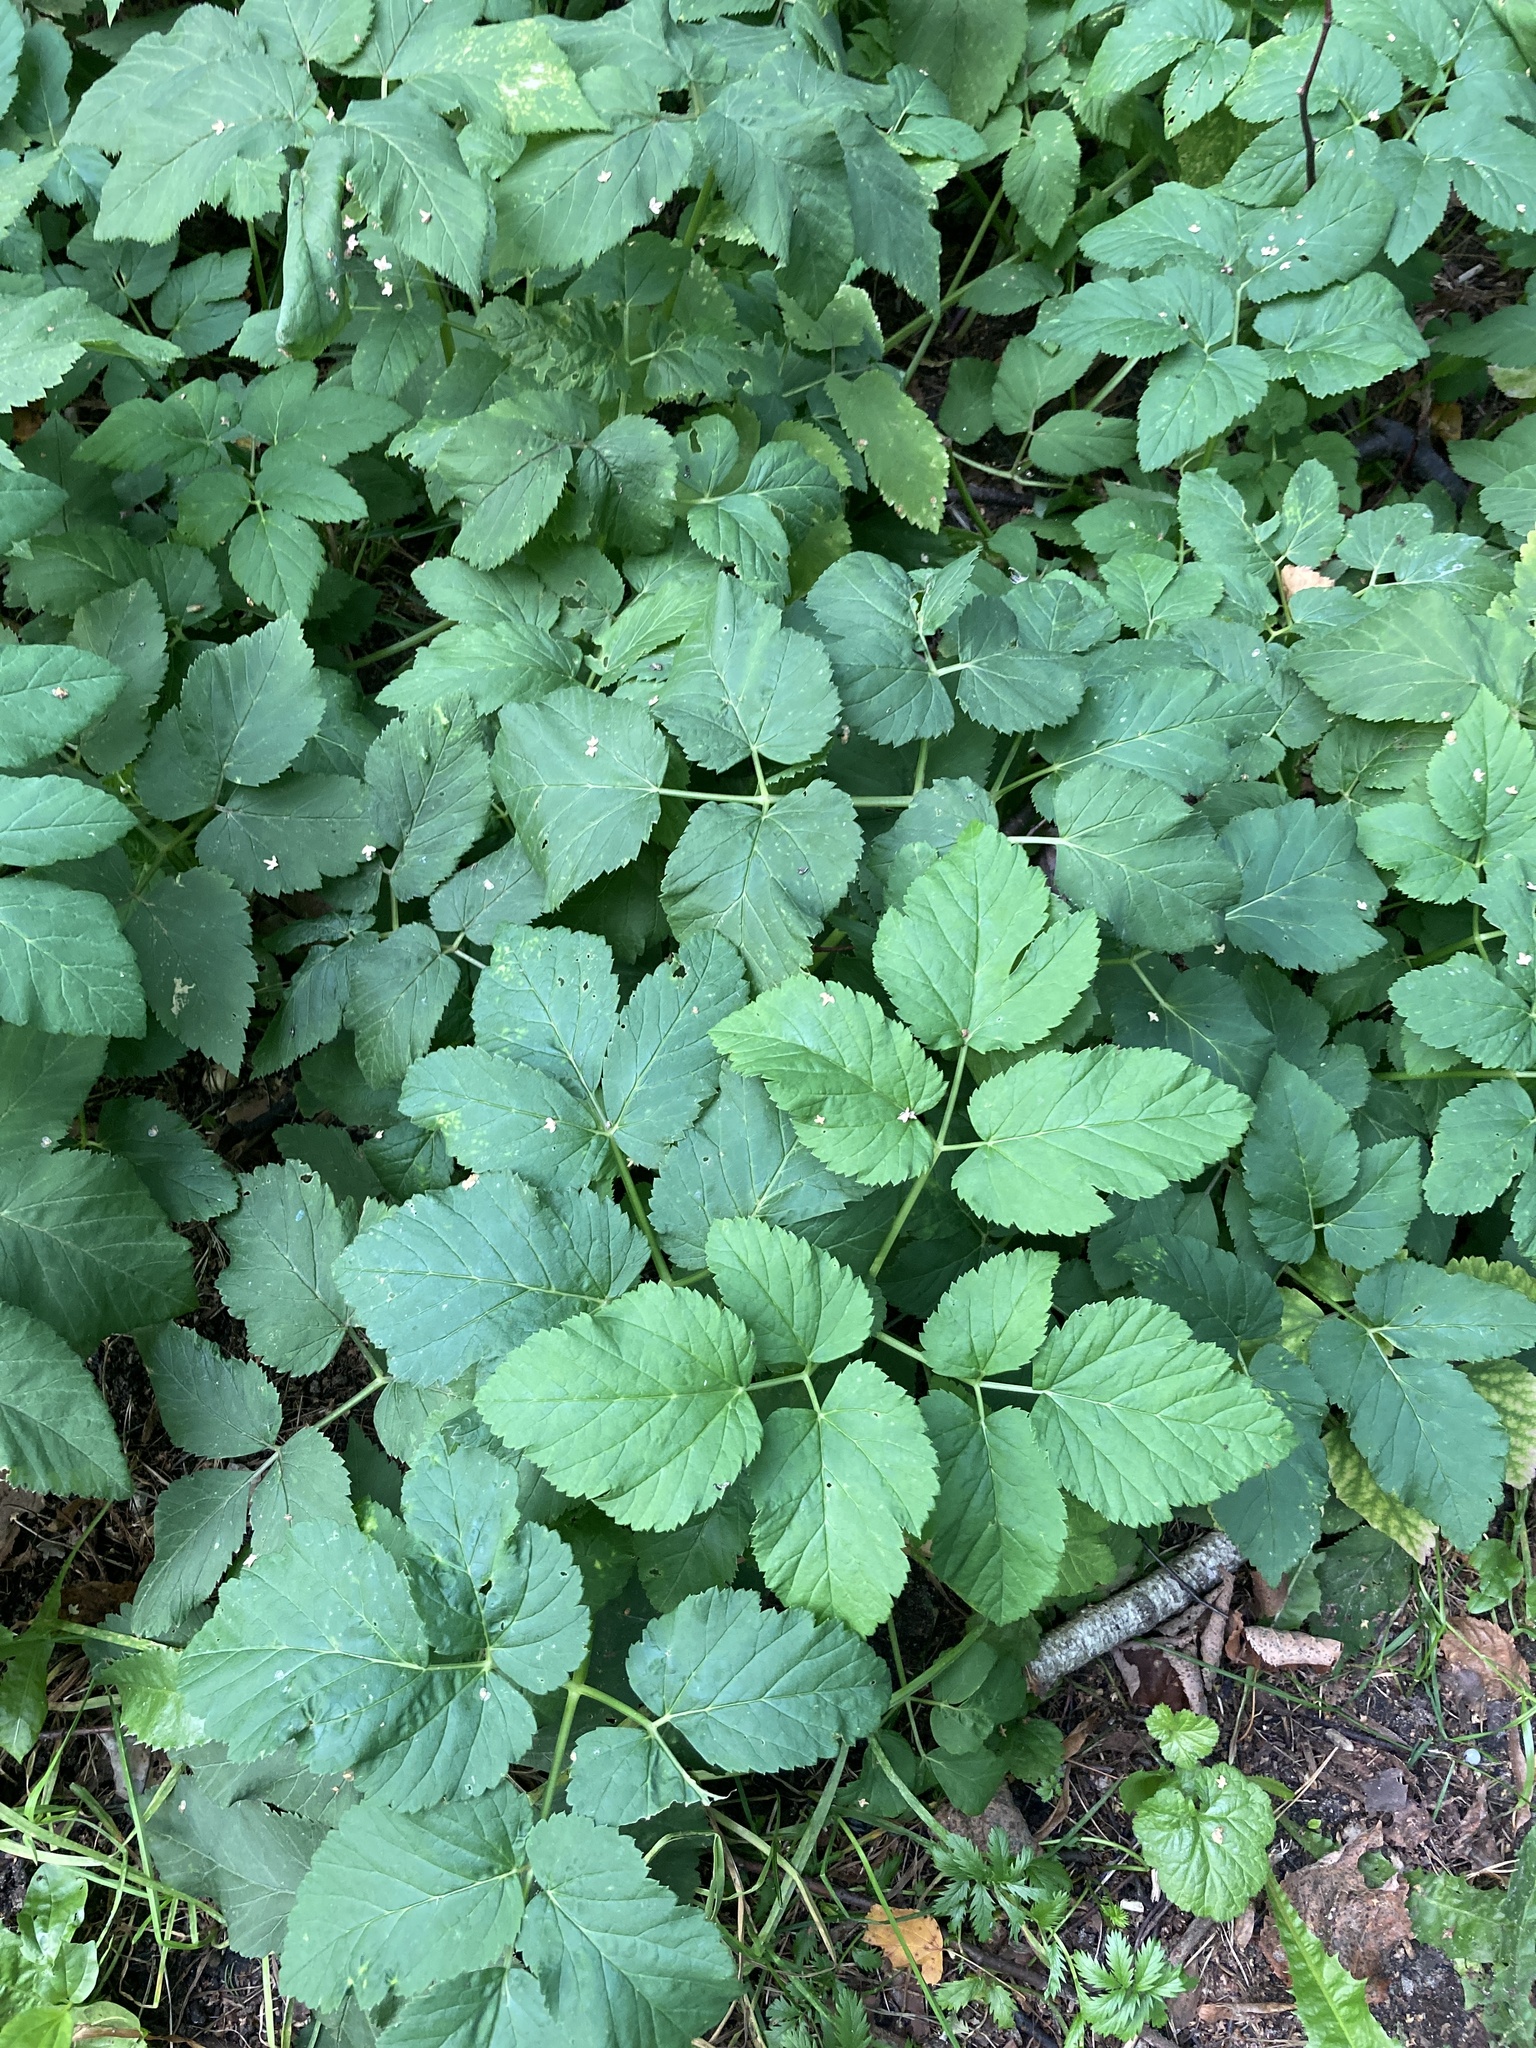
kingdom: Plantae
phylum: Tracheophyta
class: Magnoliopsida
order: Apiales
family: Apiaceae
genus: Aegopodium
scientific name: Aegopodium podagraria
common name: Ground-elder
